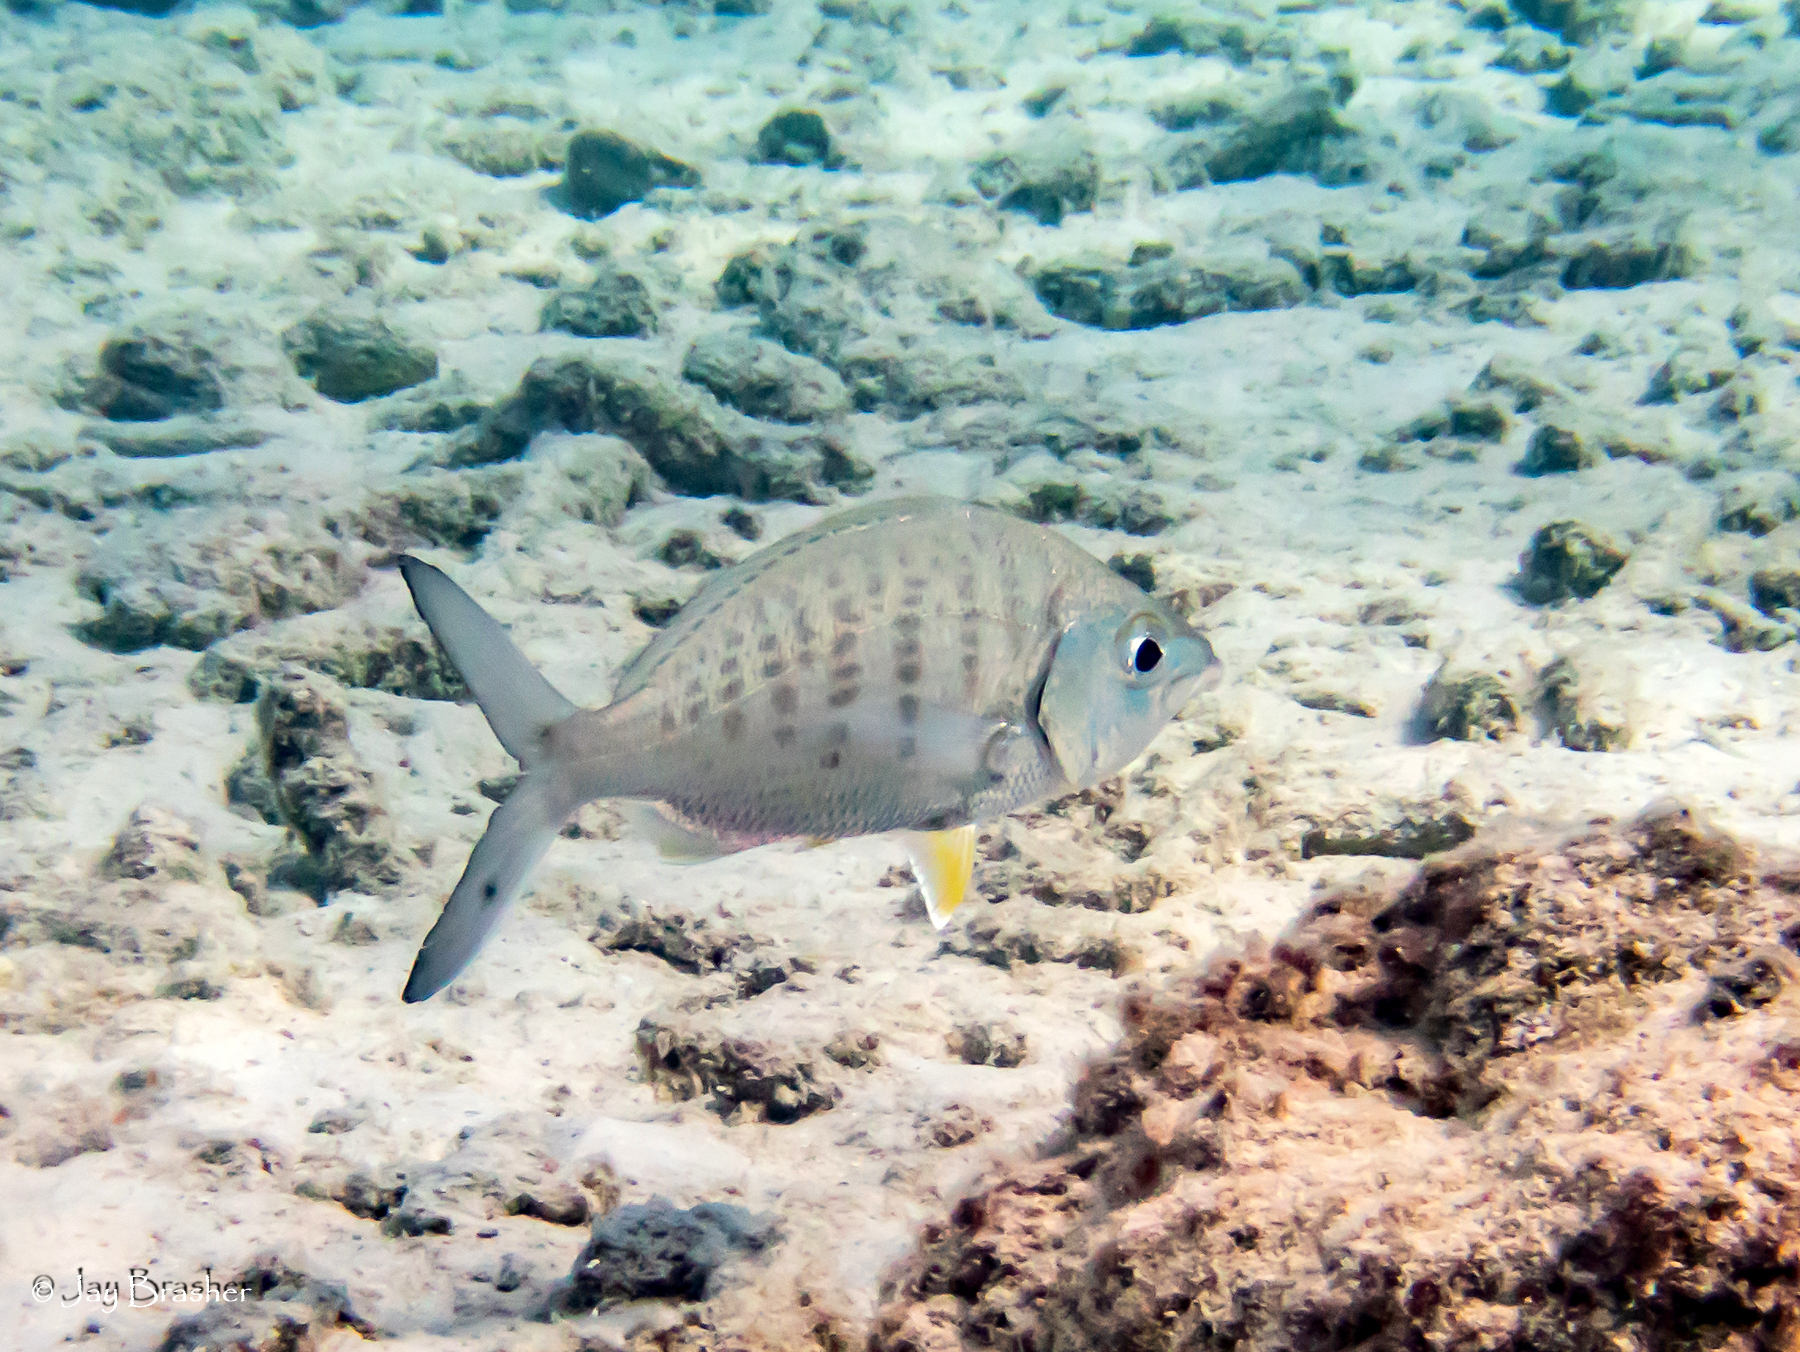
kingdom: Animalia
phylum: Chordata
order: Perciformes
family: Gerreidae
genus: Gerres
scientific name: Gerres cinereus
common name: Hedow
